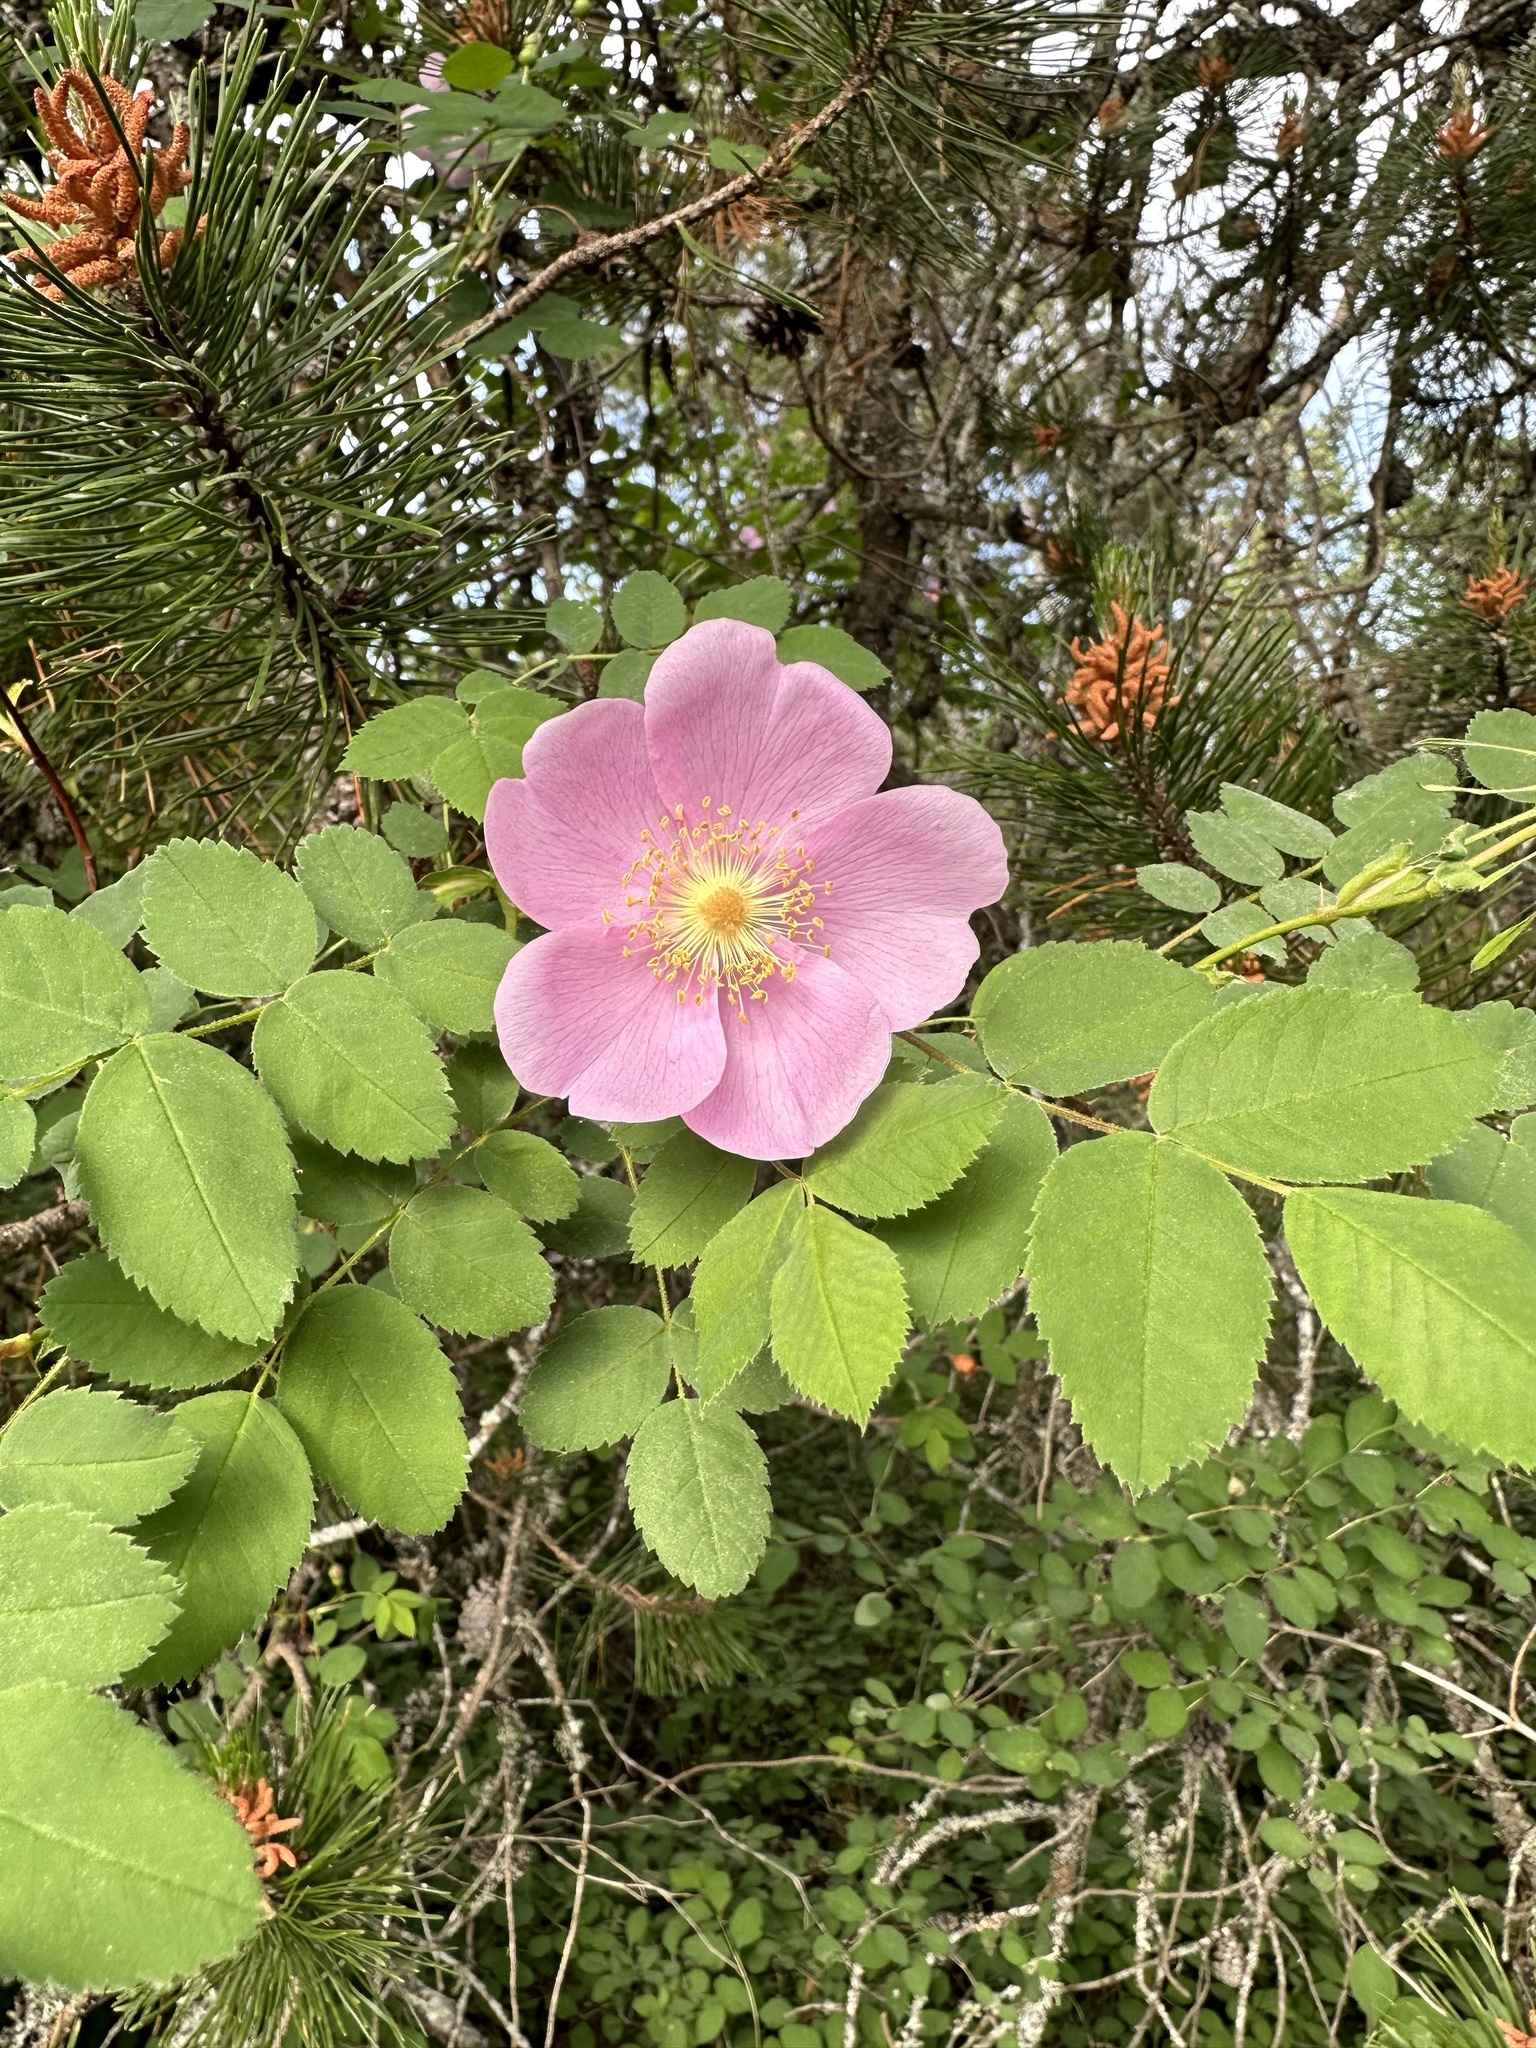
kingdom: Plantae
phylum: Tracheophyta
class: Magnoliopsida
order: Rosales
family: Rosaceae
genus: Rosa
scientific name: Rosa nutkana
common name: Nootka rose
